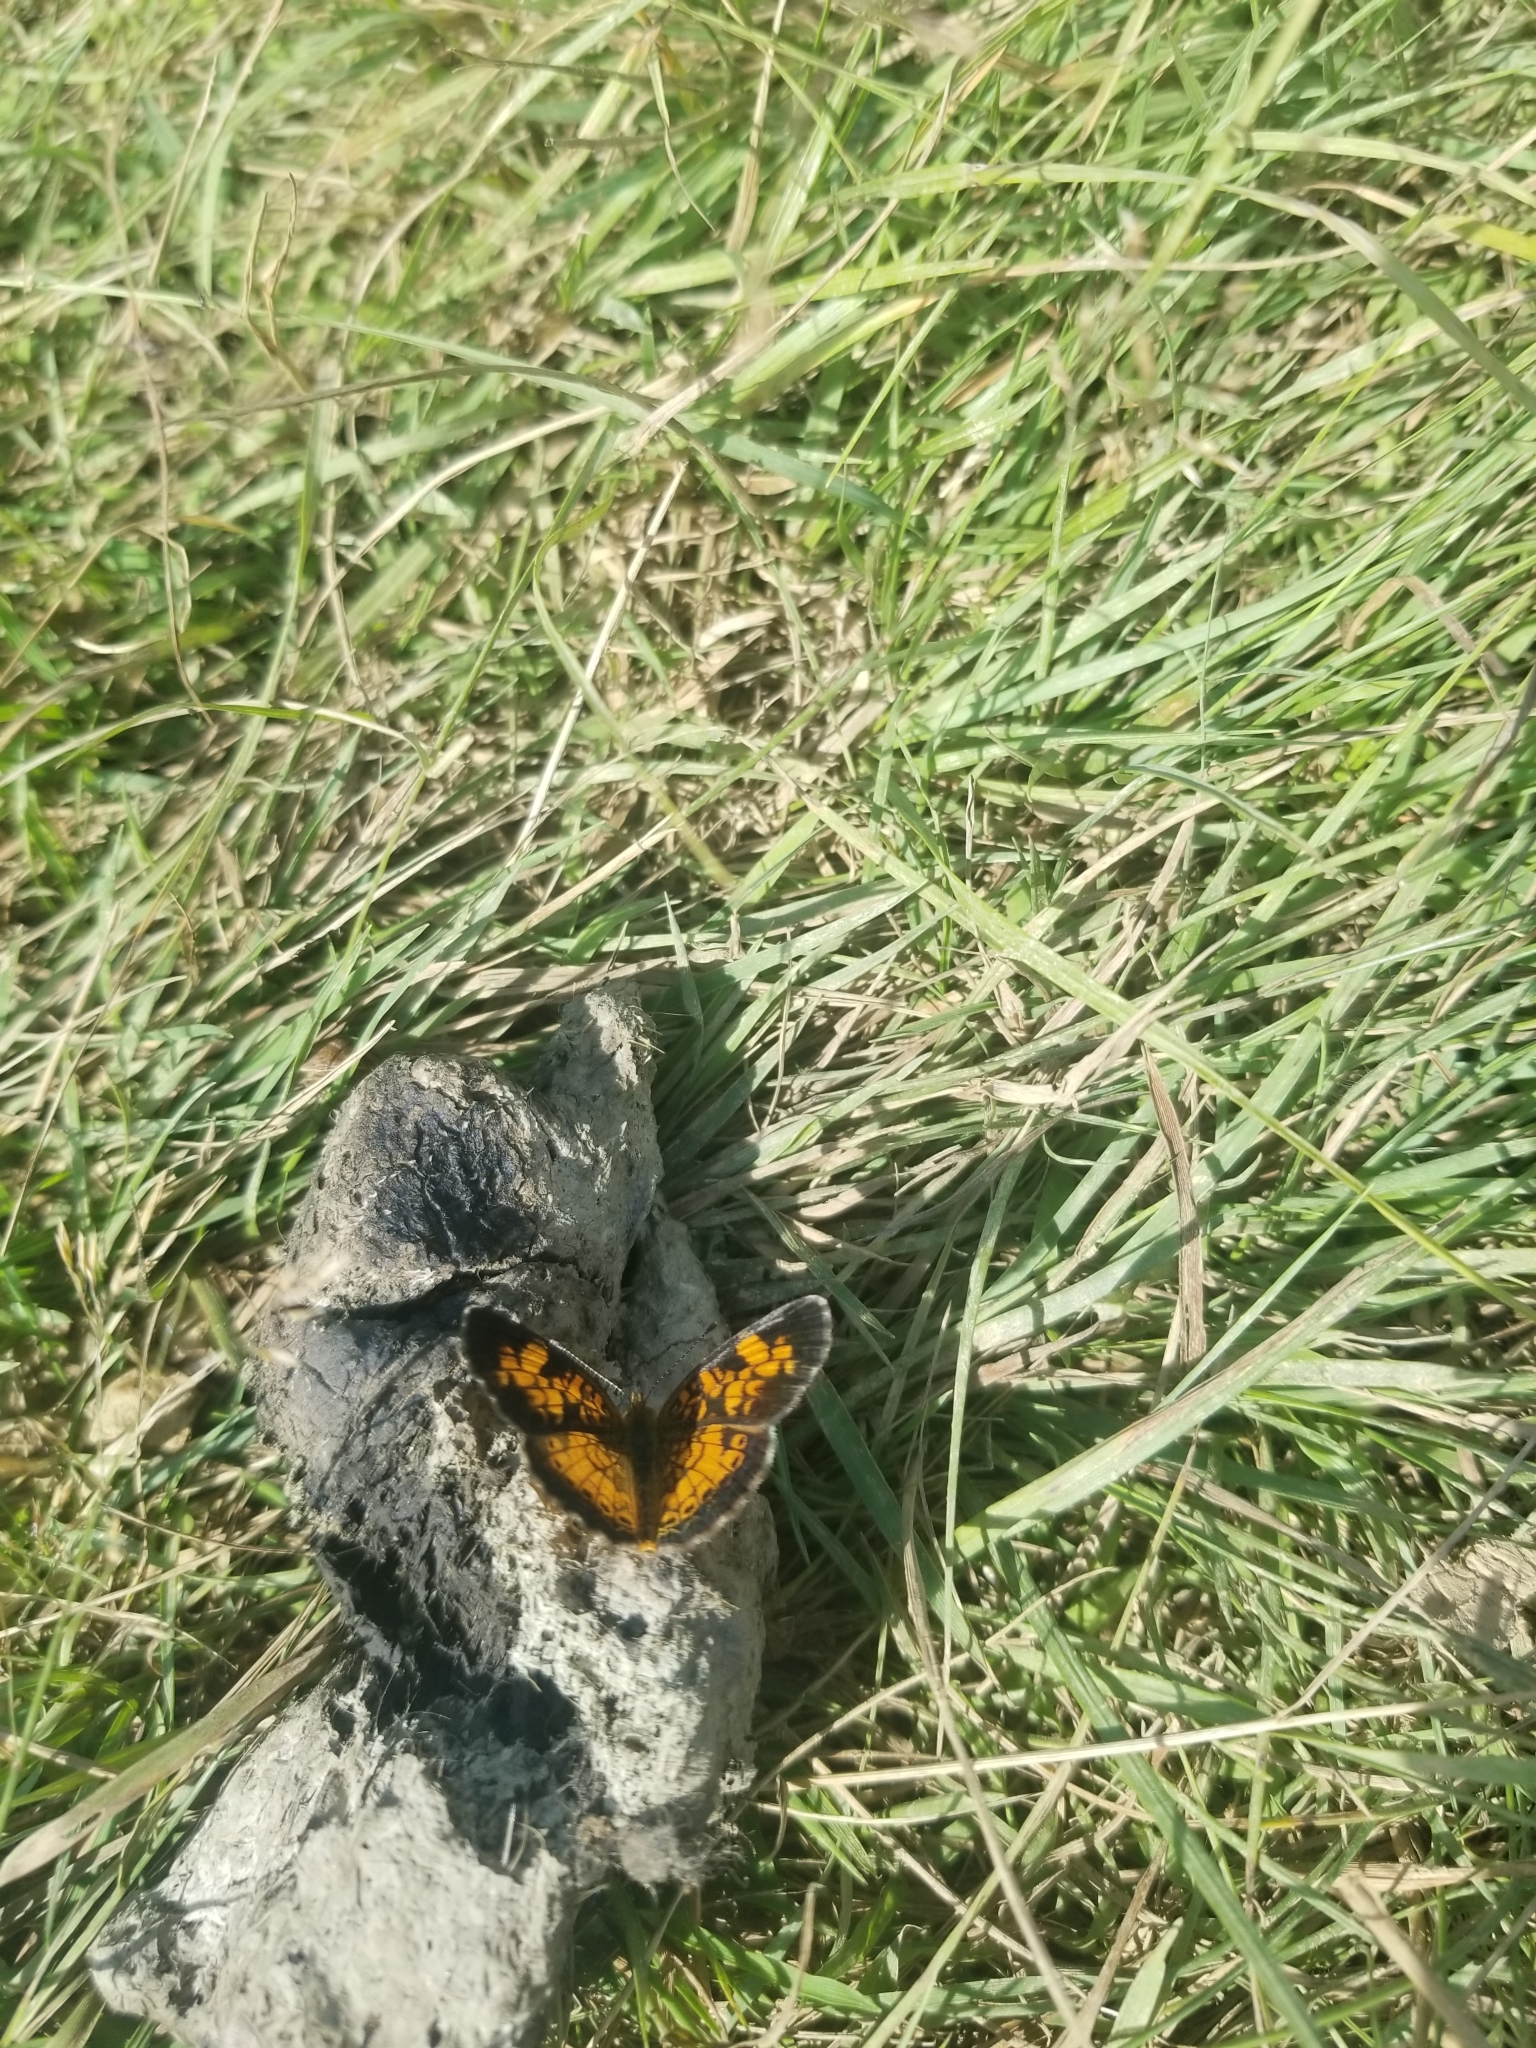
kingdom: Animalia
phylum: Arthropoda
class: Insecta
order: Lepidoptera
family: Nymphalidae
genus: Phyciodes
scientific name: Phyciodes tharos
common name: Pearl crescent
